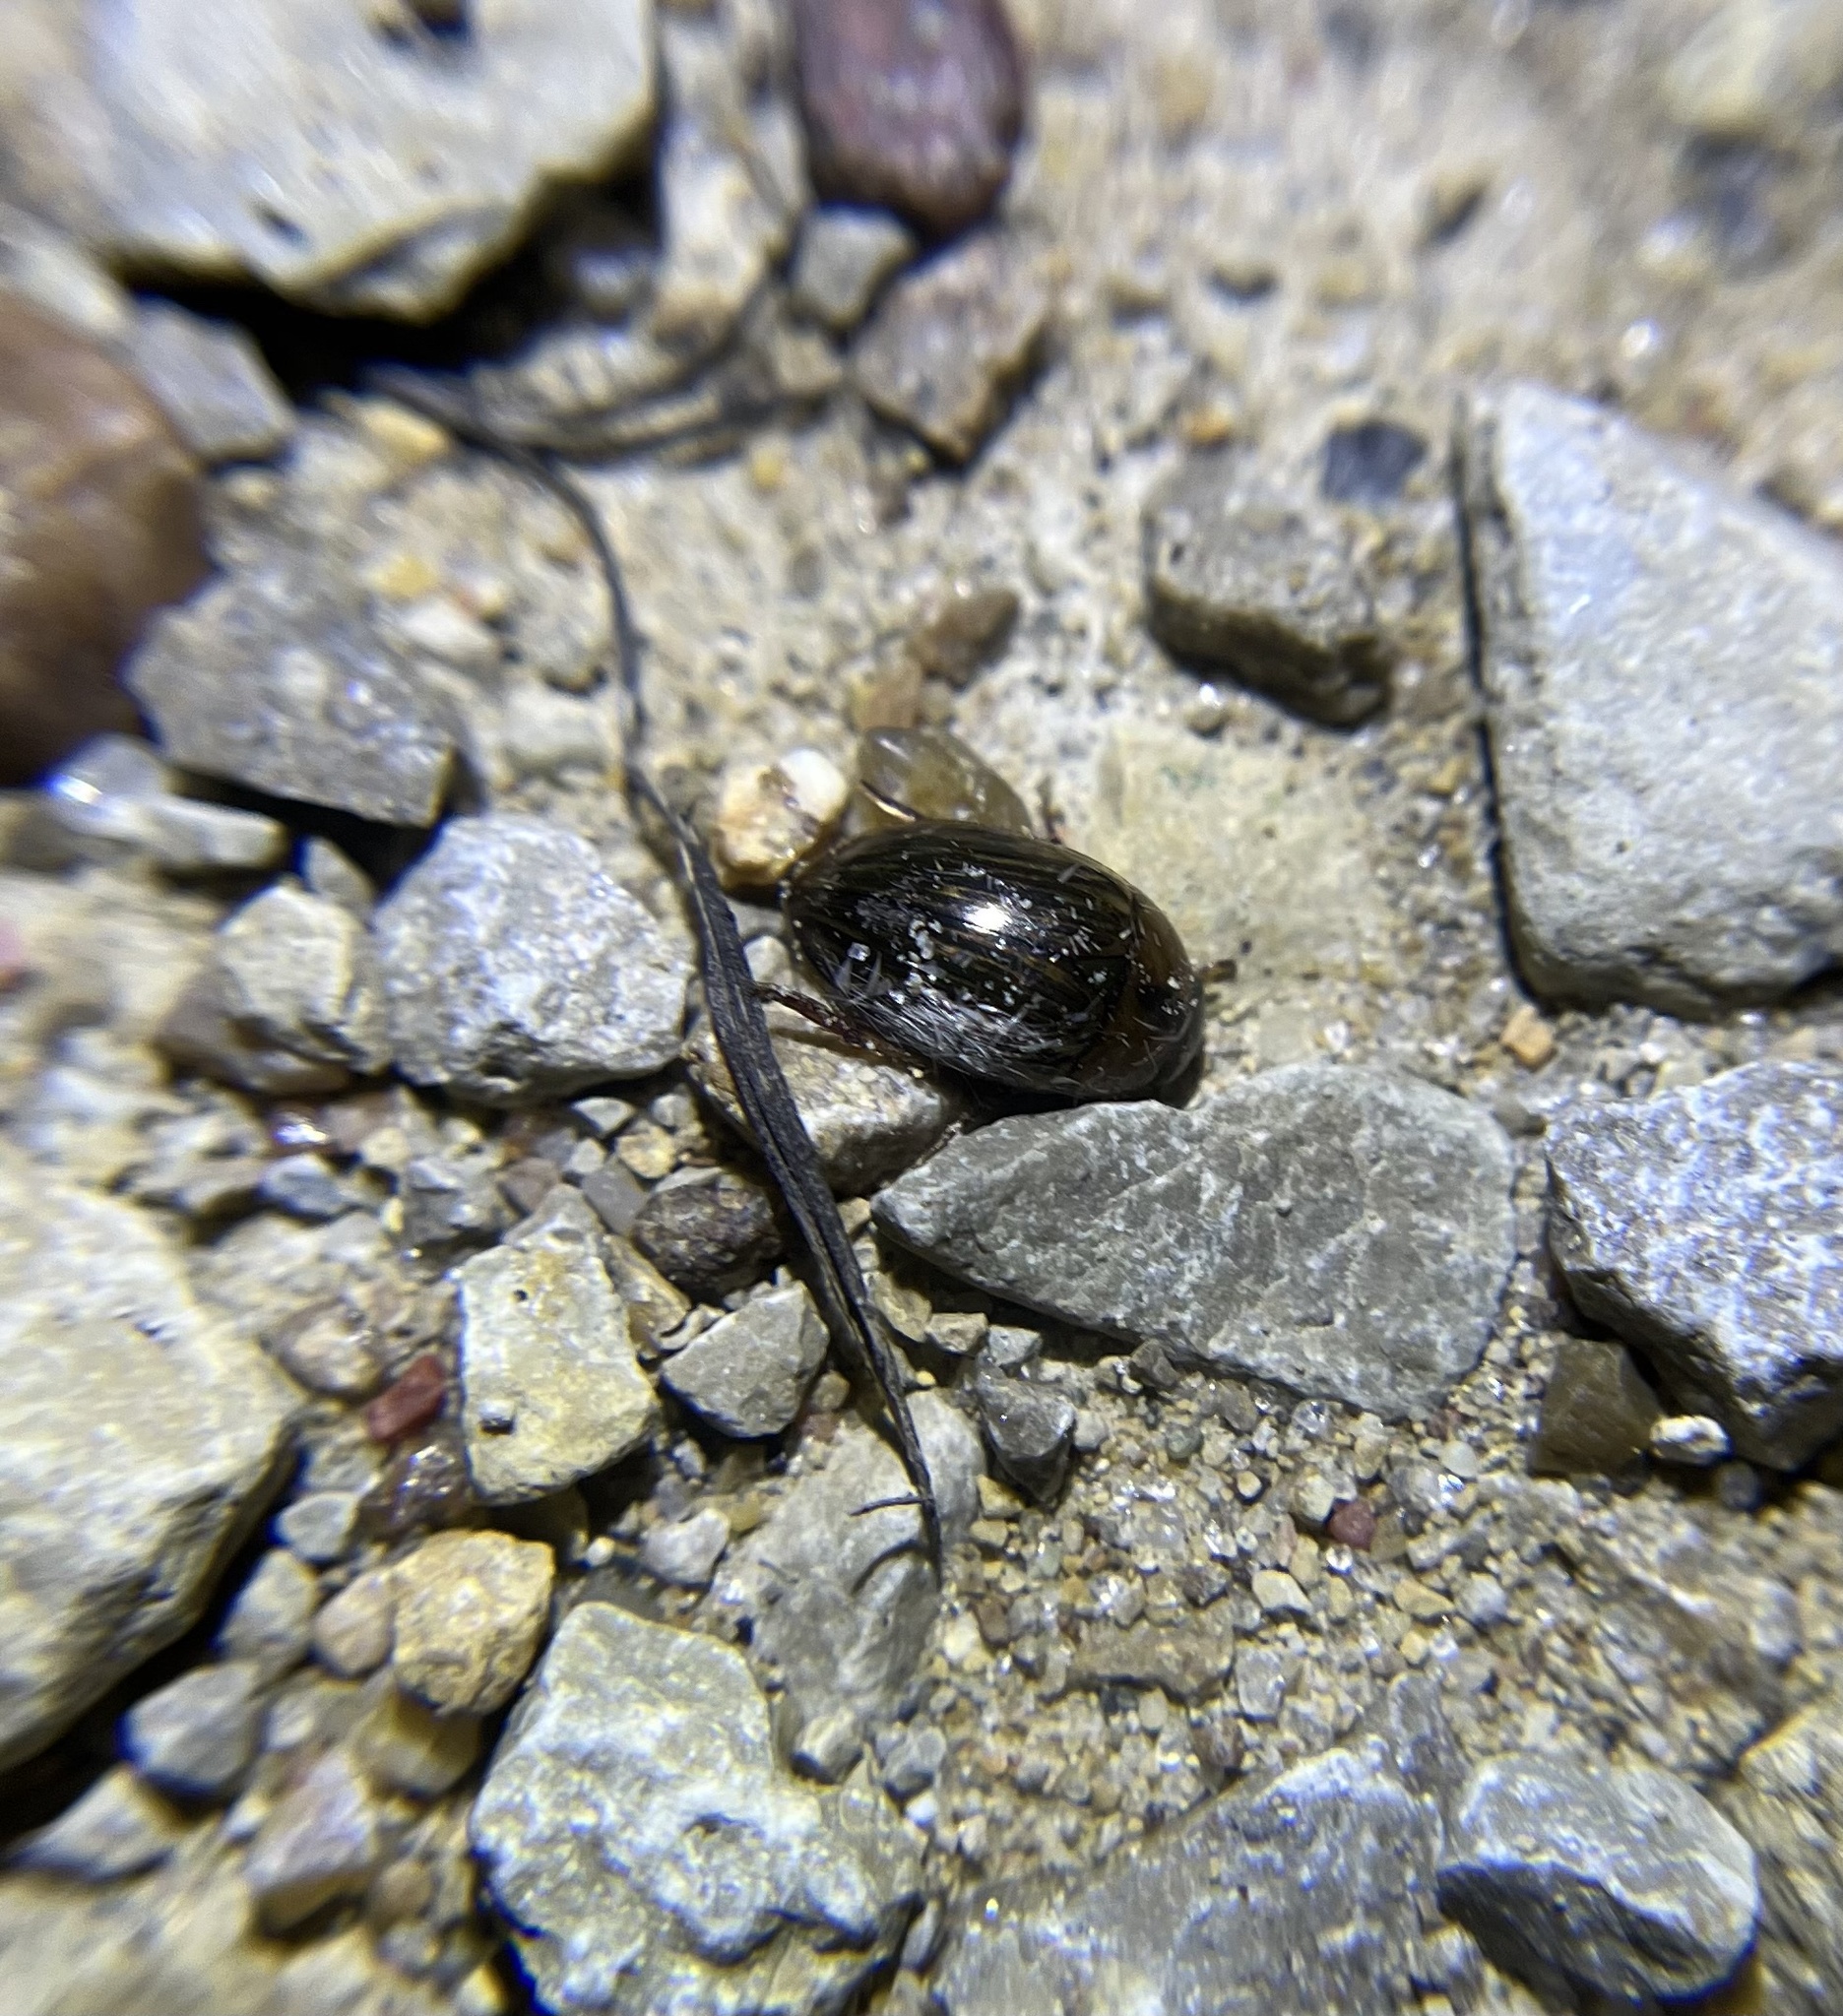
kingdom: Animalia
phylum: Arthropoda
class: Insecta
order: Coleoptera
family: Hydrophilidae
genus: Tropisternus
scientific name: Tropisternus collaris
